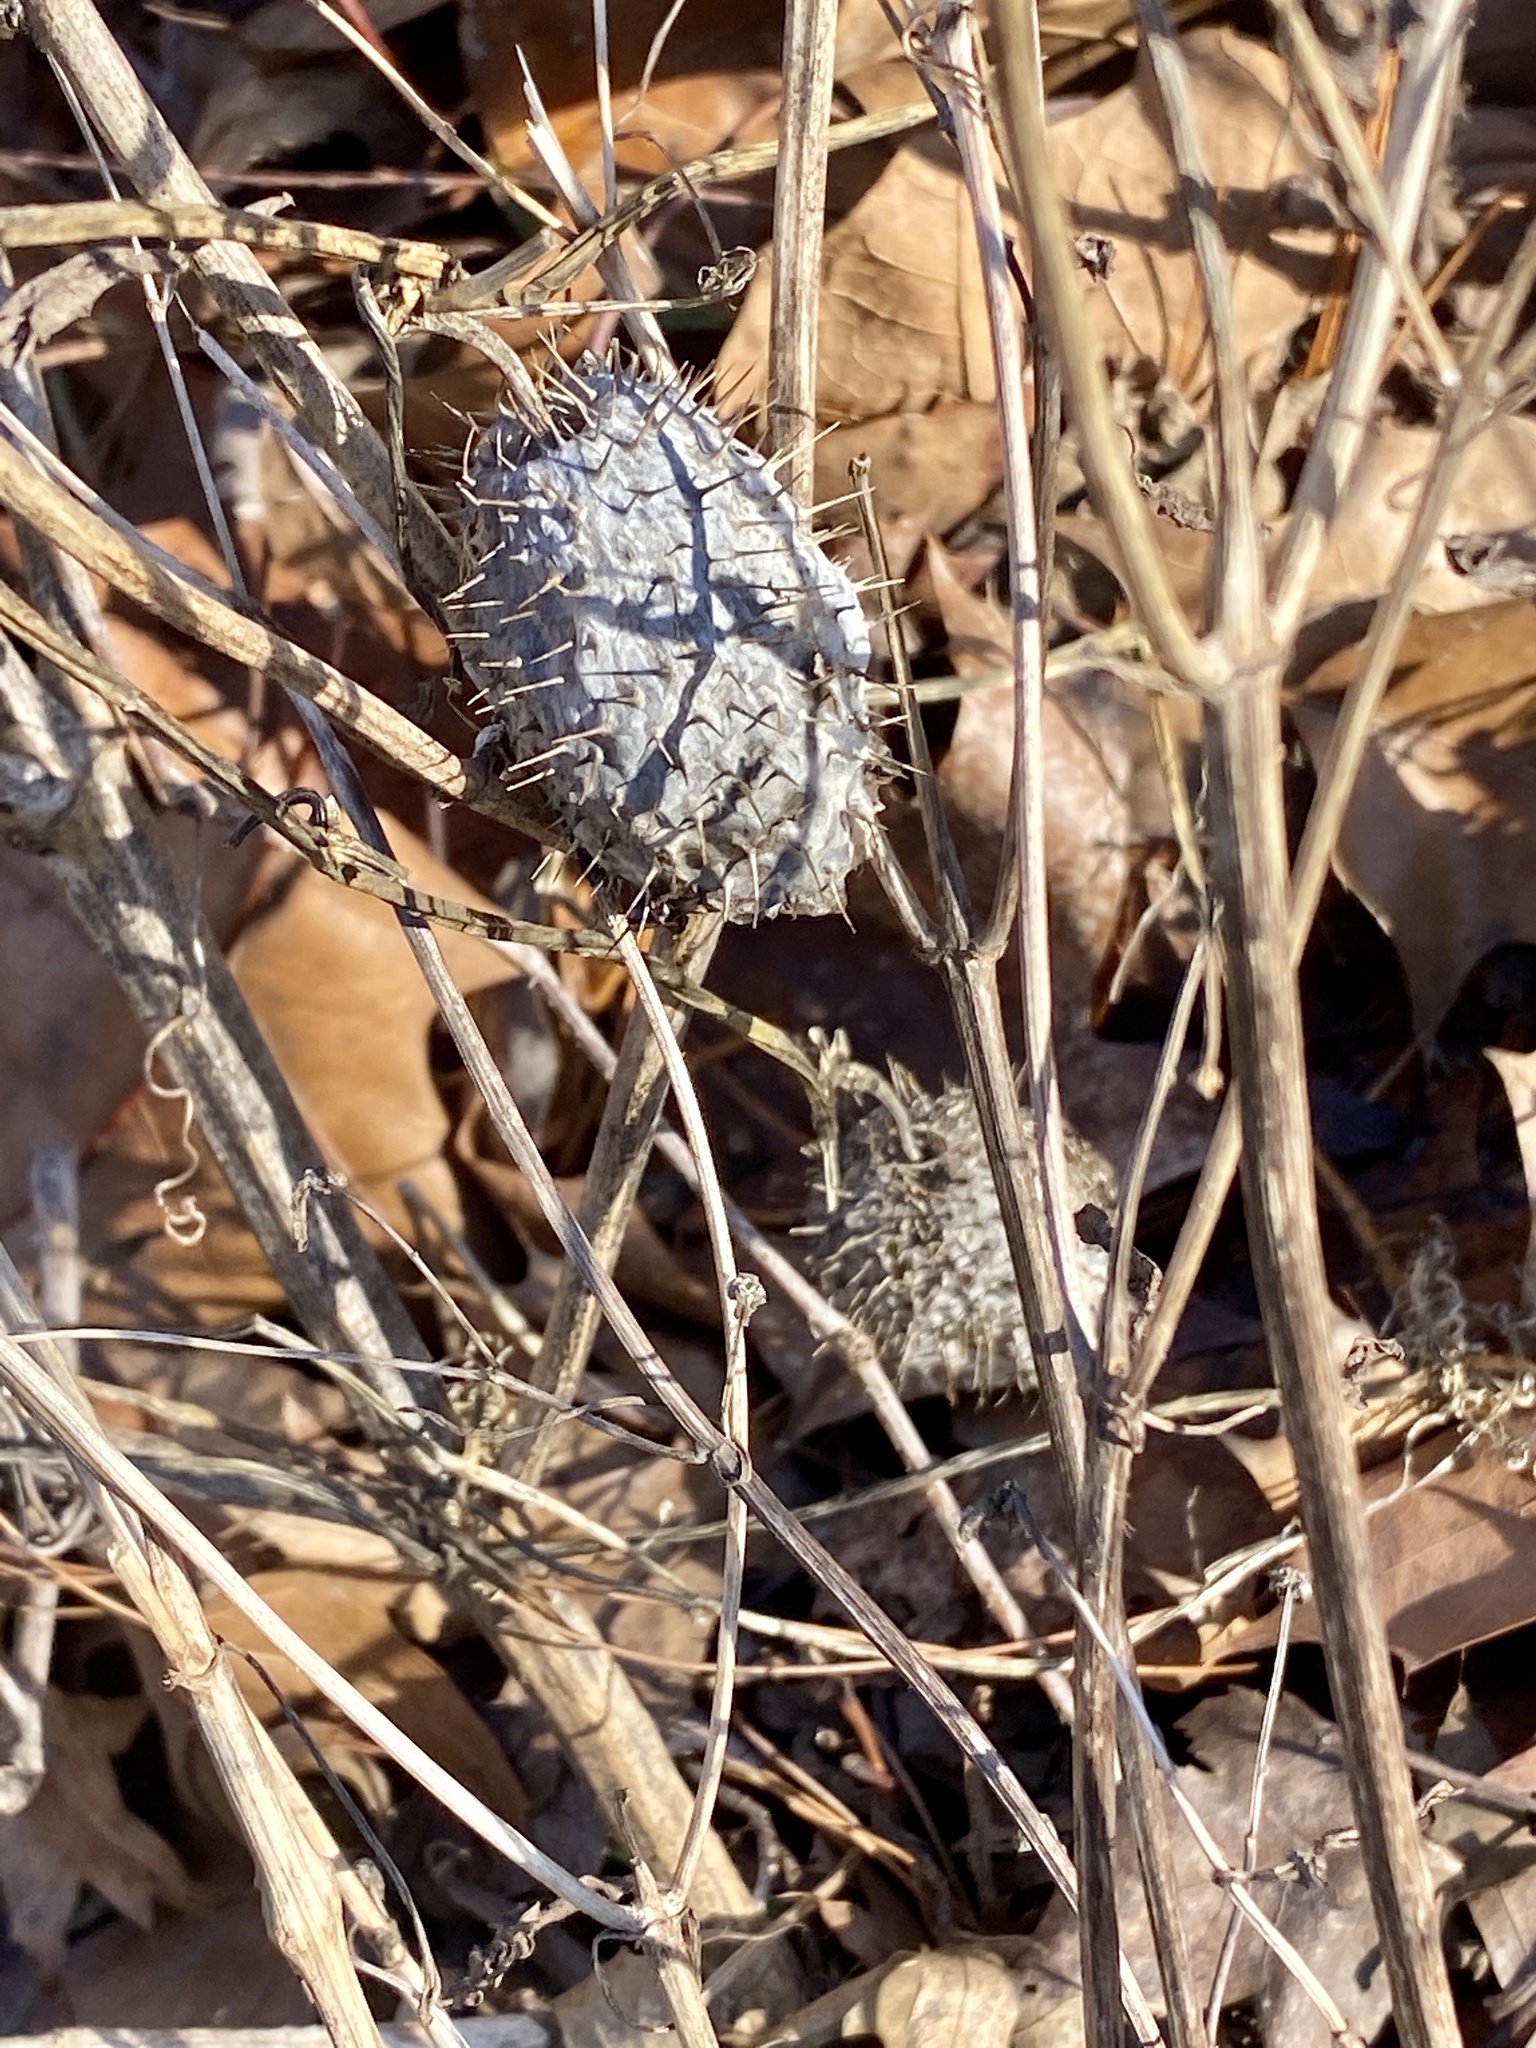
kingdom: Plantae
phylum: Tracheophyta
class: Magnoliopsida
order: Cucurbitales
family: Cucurbitaceae
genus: Echinocystis
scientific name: Echinocystis lobata
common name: Wild cucumber
